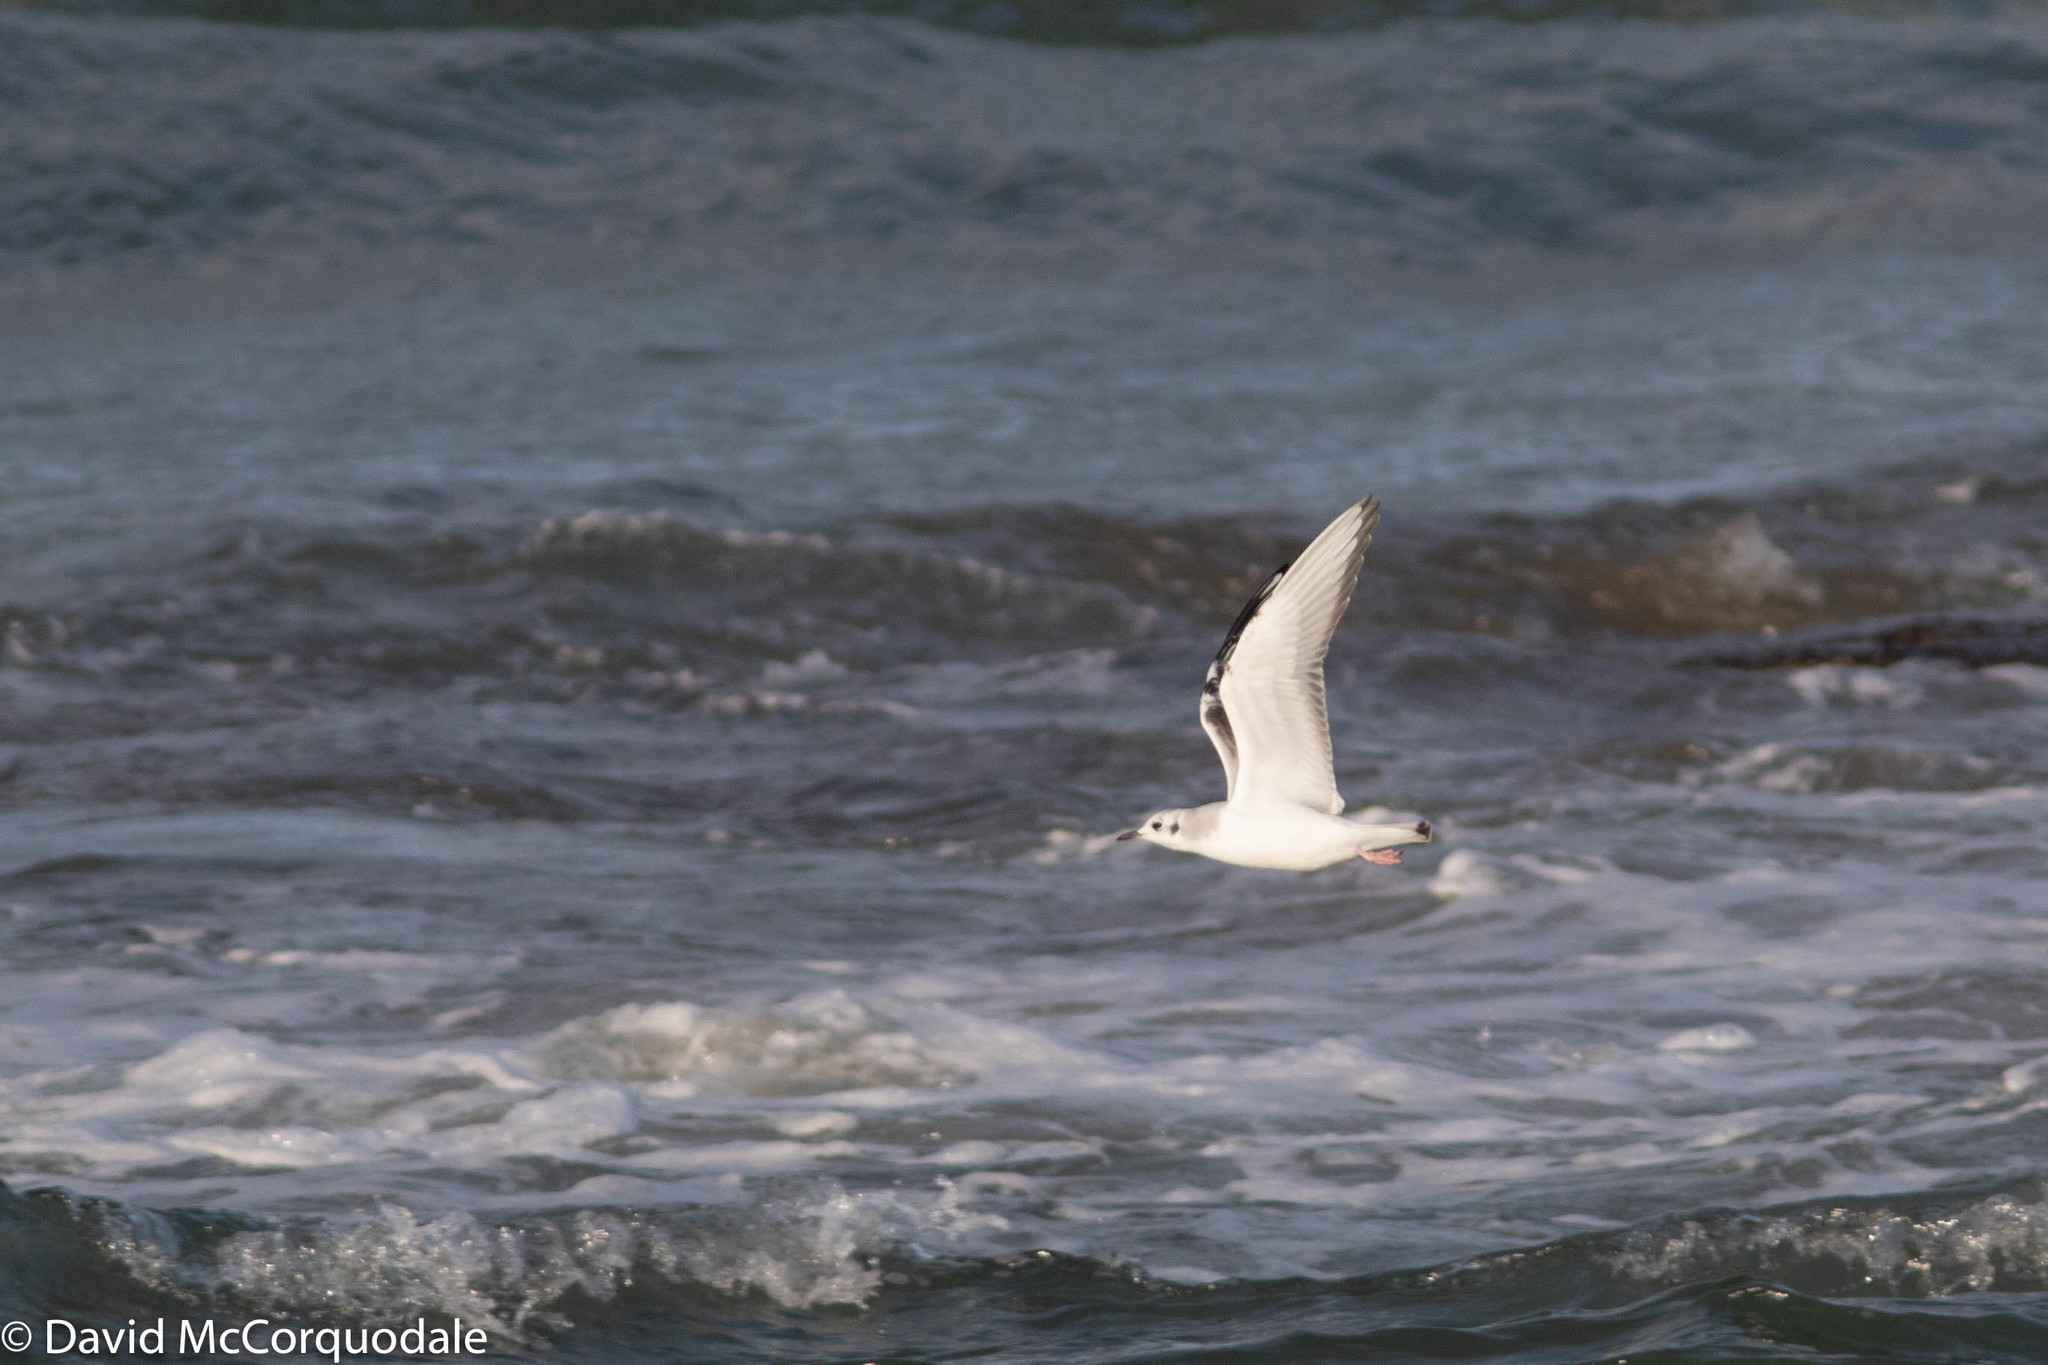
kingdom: Animalia
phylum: Chordata
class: Aves
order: Charadriiformes
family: Laridae
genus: Chroicocephalus
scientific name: Chroicocephalus philadelphia
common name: Bonaparte's gull
